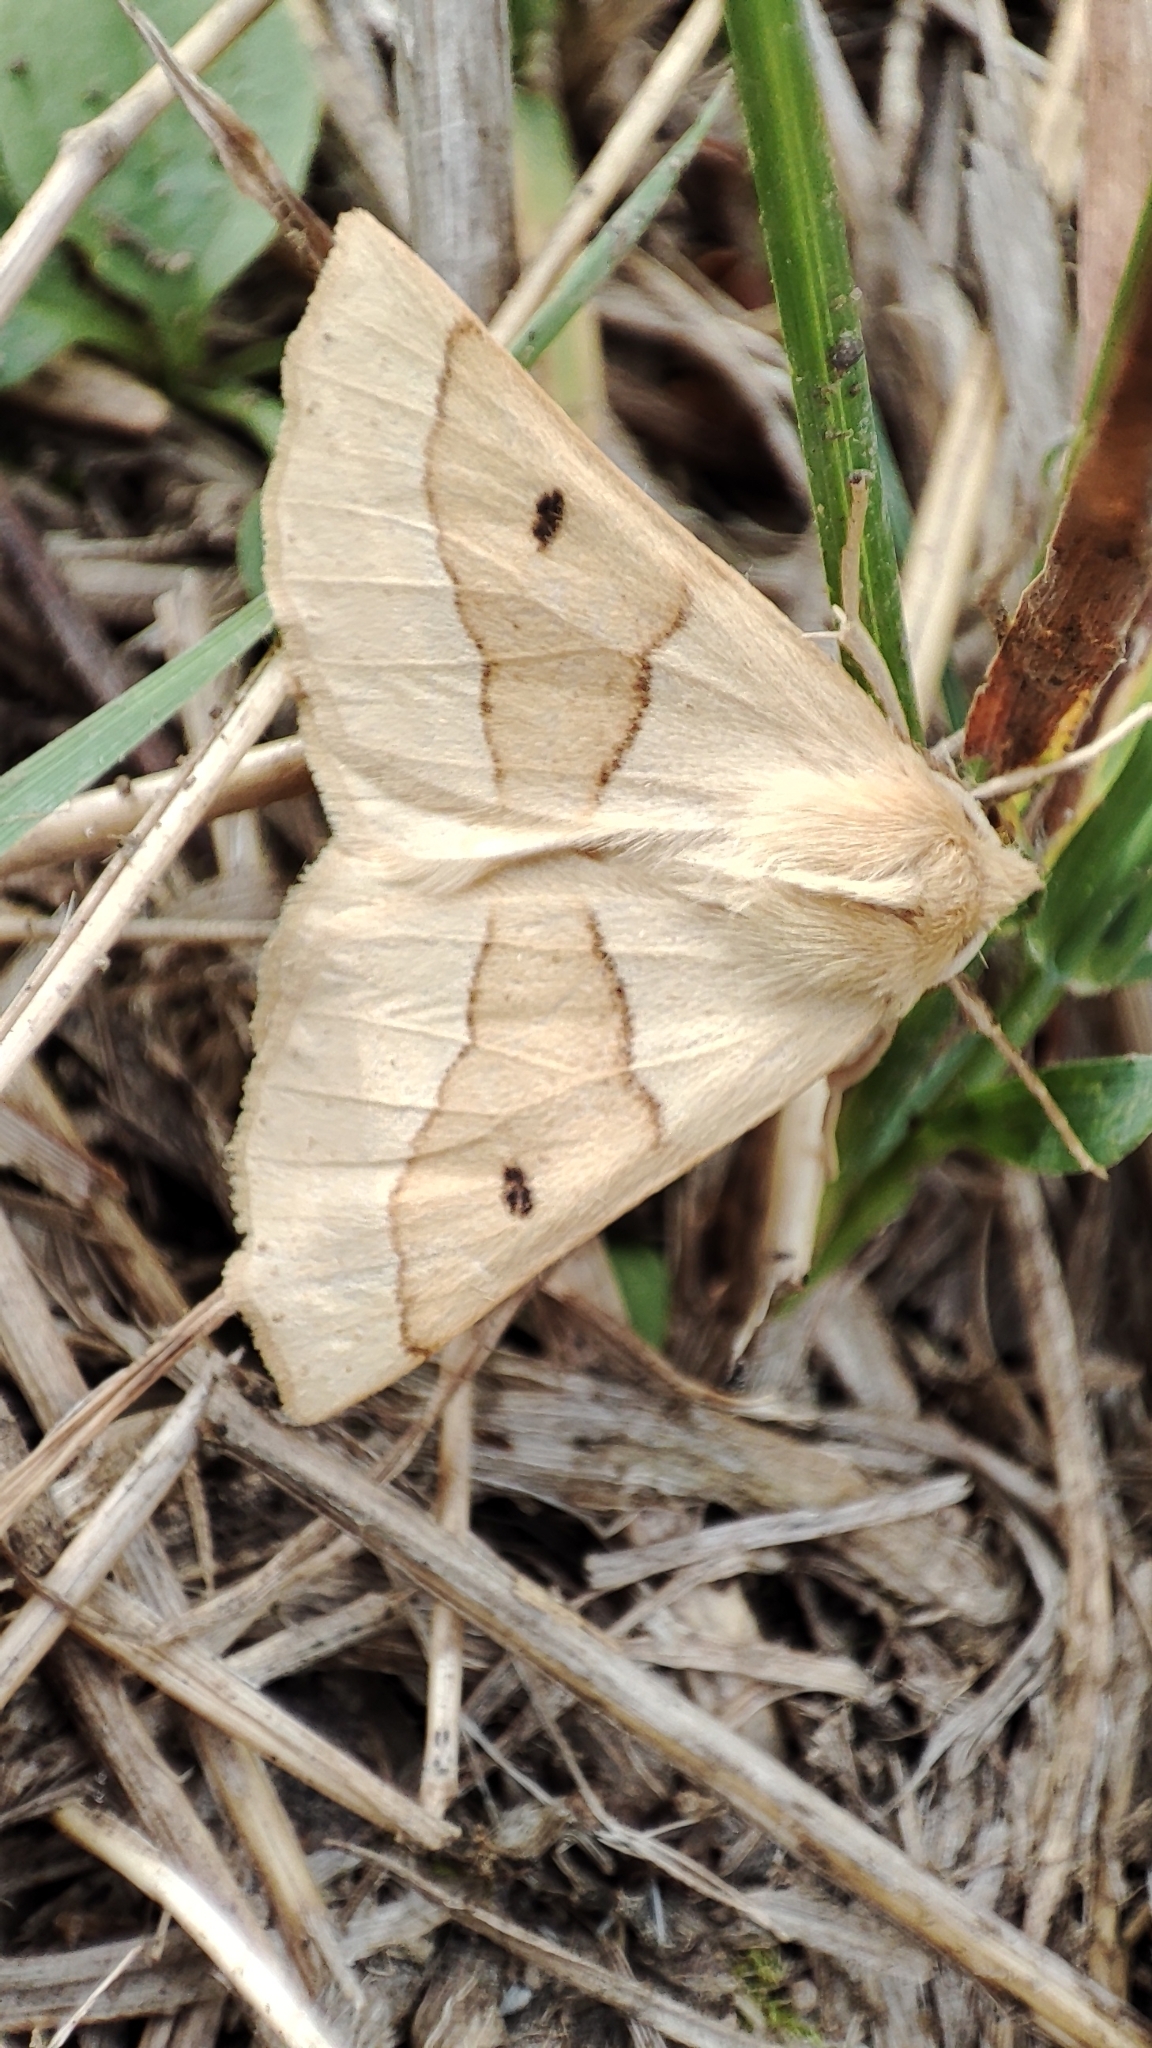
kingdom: Animalia
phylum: Arthropoda
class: Insecta
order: Lepidoptera
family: Geometridae
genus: Crocallis
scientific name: Crocallis elinguaria
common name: Scalloped oak
